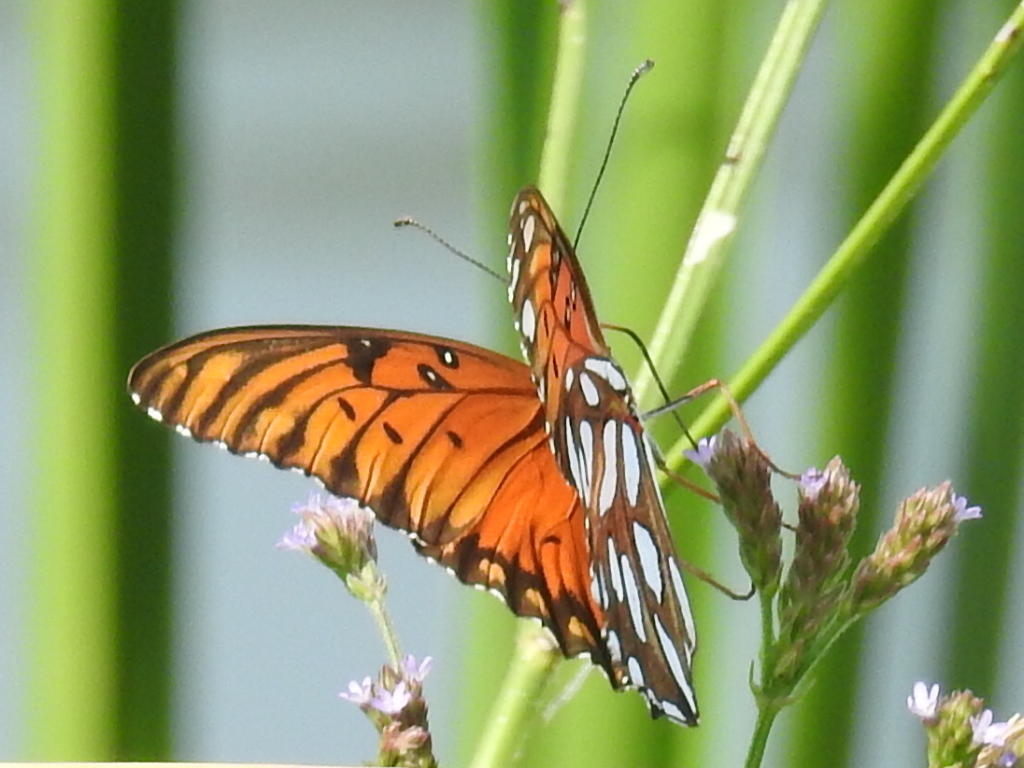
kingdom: Animalia
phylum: Arthropoda
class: Insecta
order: Lepidoptera
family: Nymphalidae
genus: Dione
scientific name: Dione vanillae
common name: Gulf fritillary
